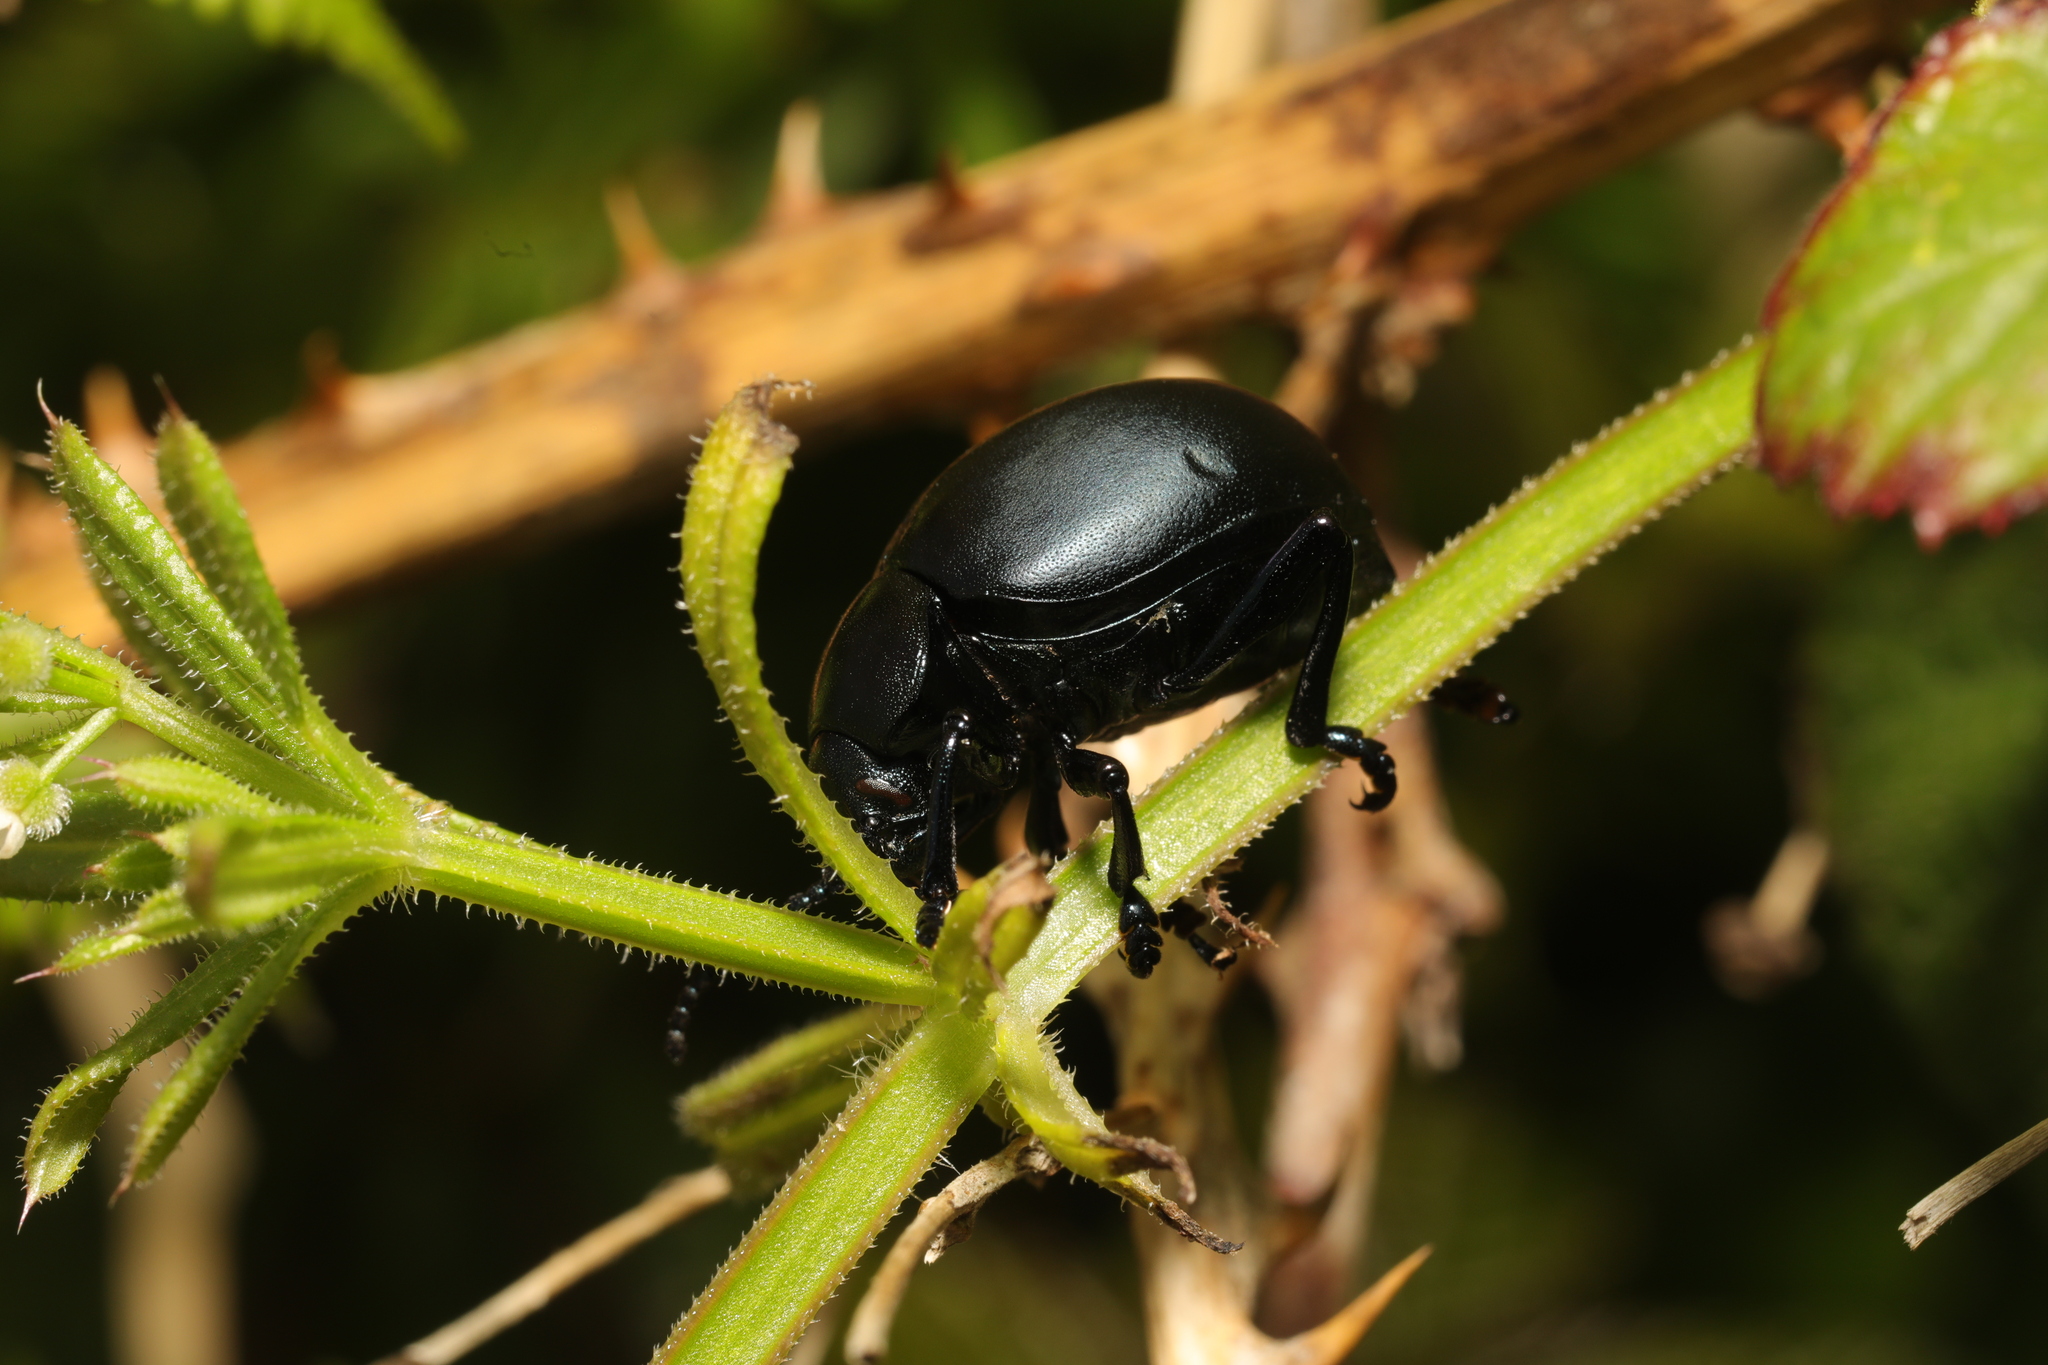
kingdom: Animalia
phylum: Arthropoda
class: Insecta
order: Coleoptera
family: Chrysomelidae
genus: Timarcha
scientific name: Timarcha tenebricosa
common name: Bloody-nosed beetle
